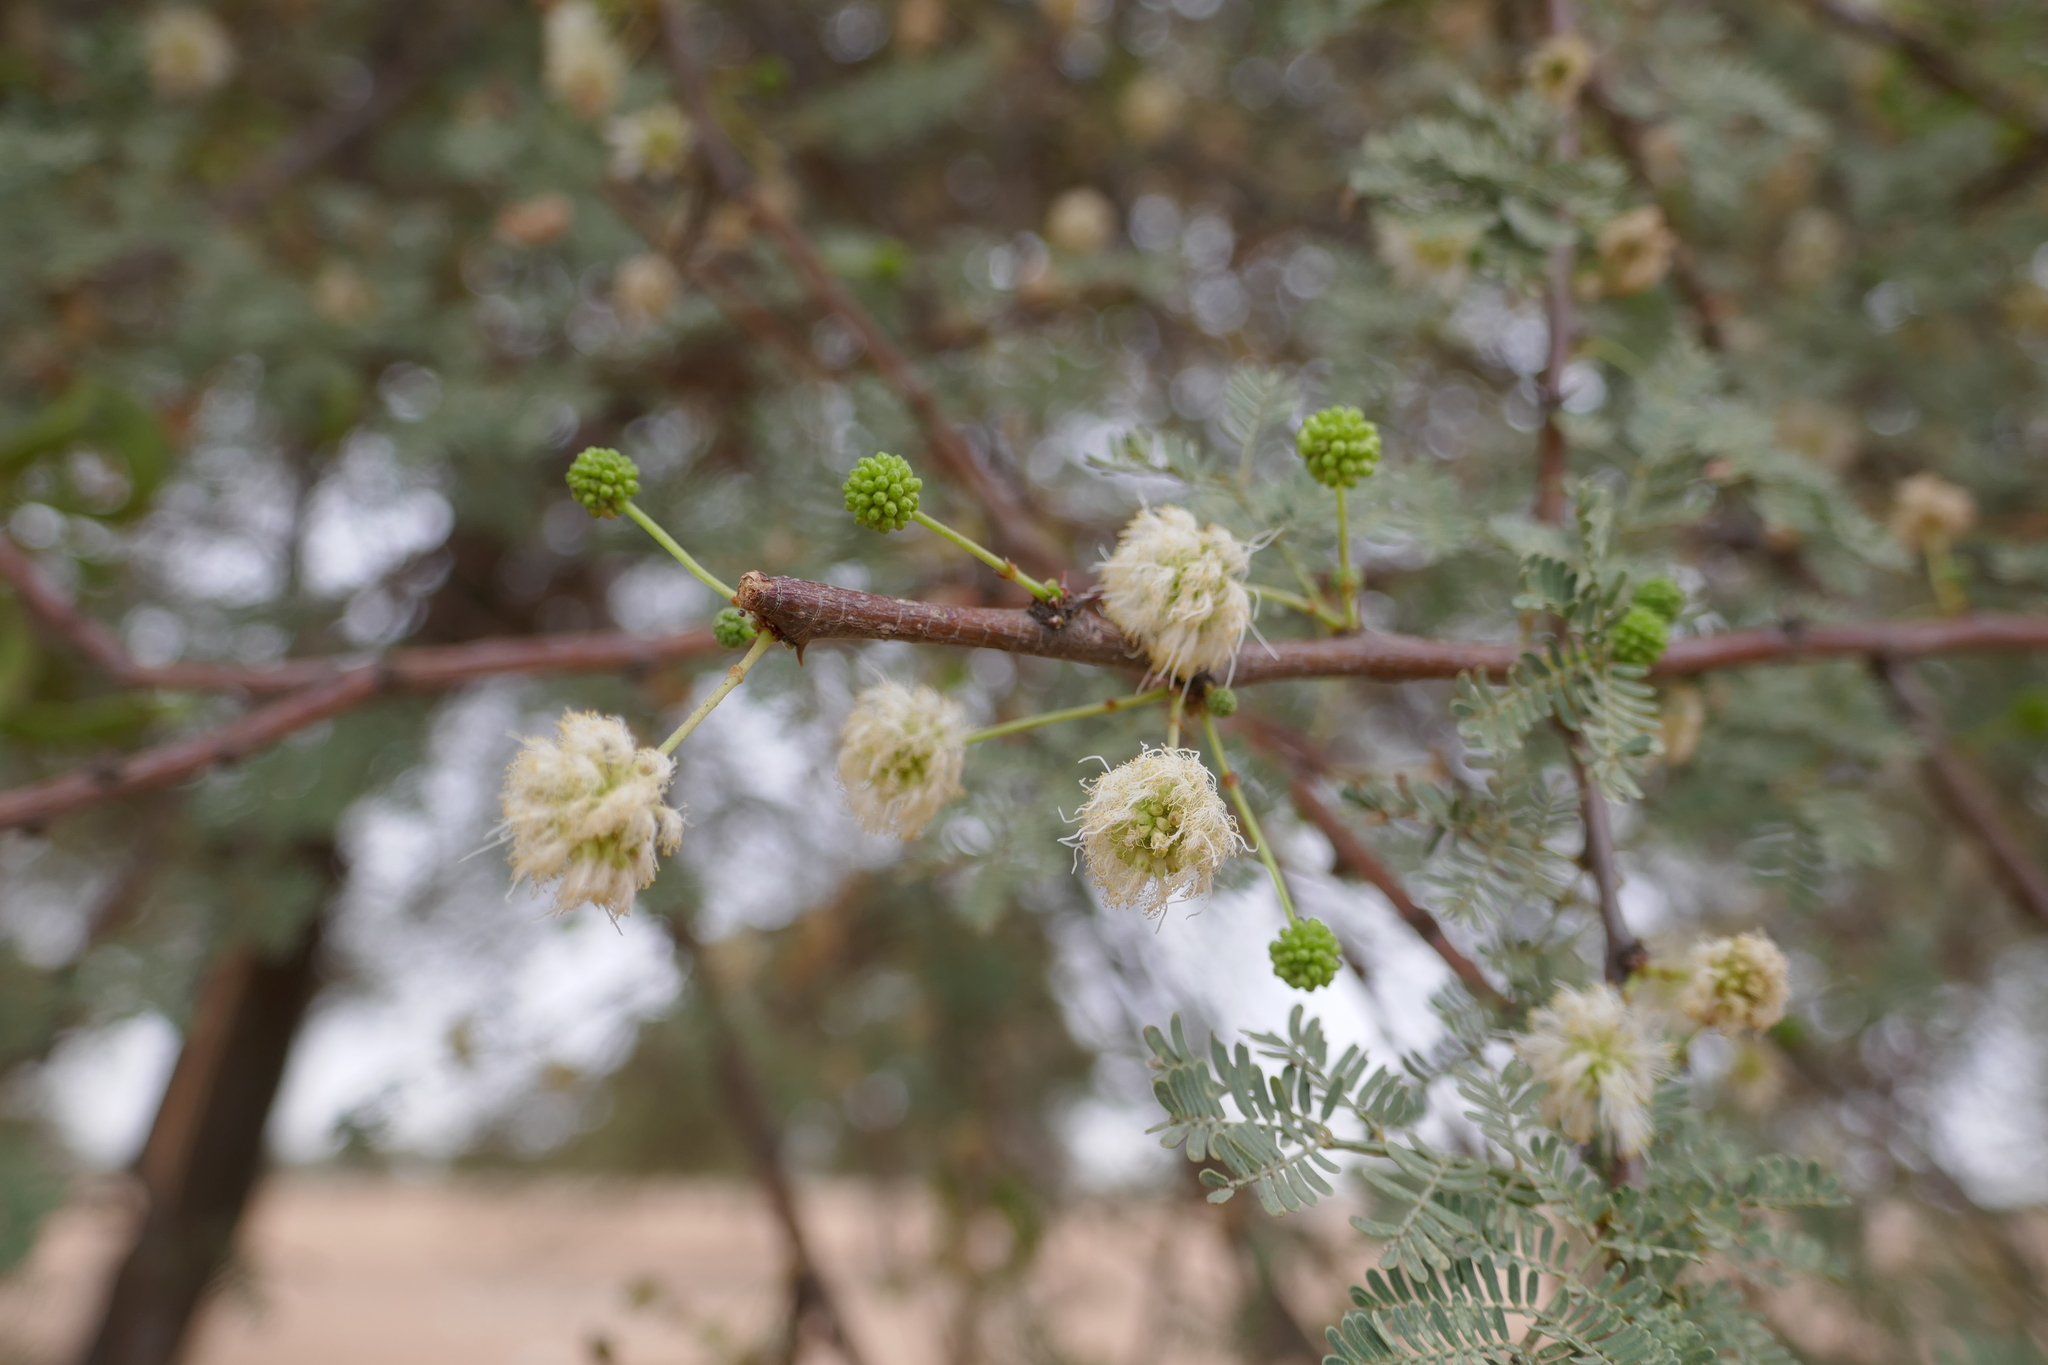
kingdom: Plantae
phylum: Tracheophyta
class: Magnoliopsida
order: Fabales
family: Fabaceae
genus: Vachellia
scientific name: Vachellia tortilis
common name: Umbrella thorn acacia
